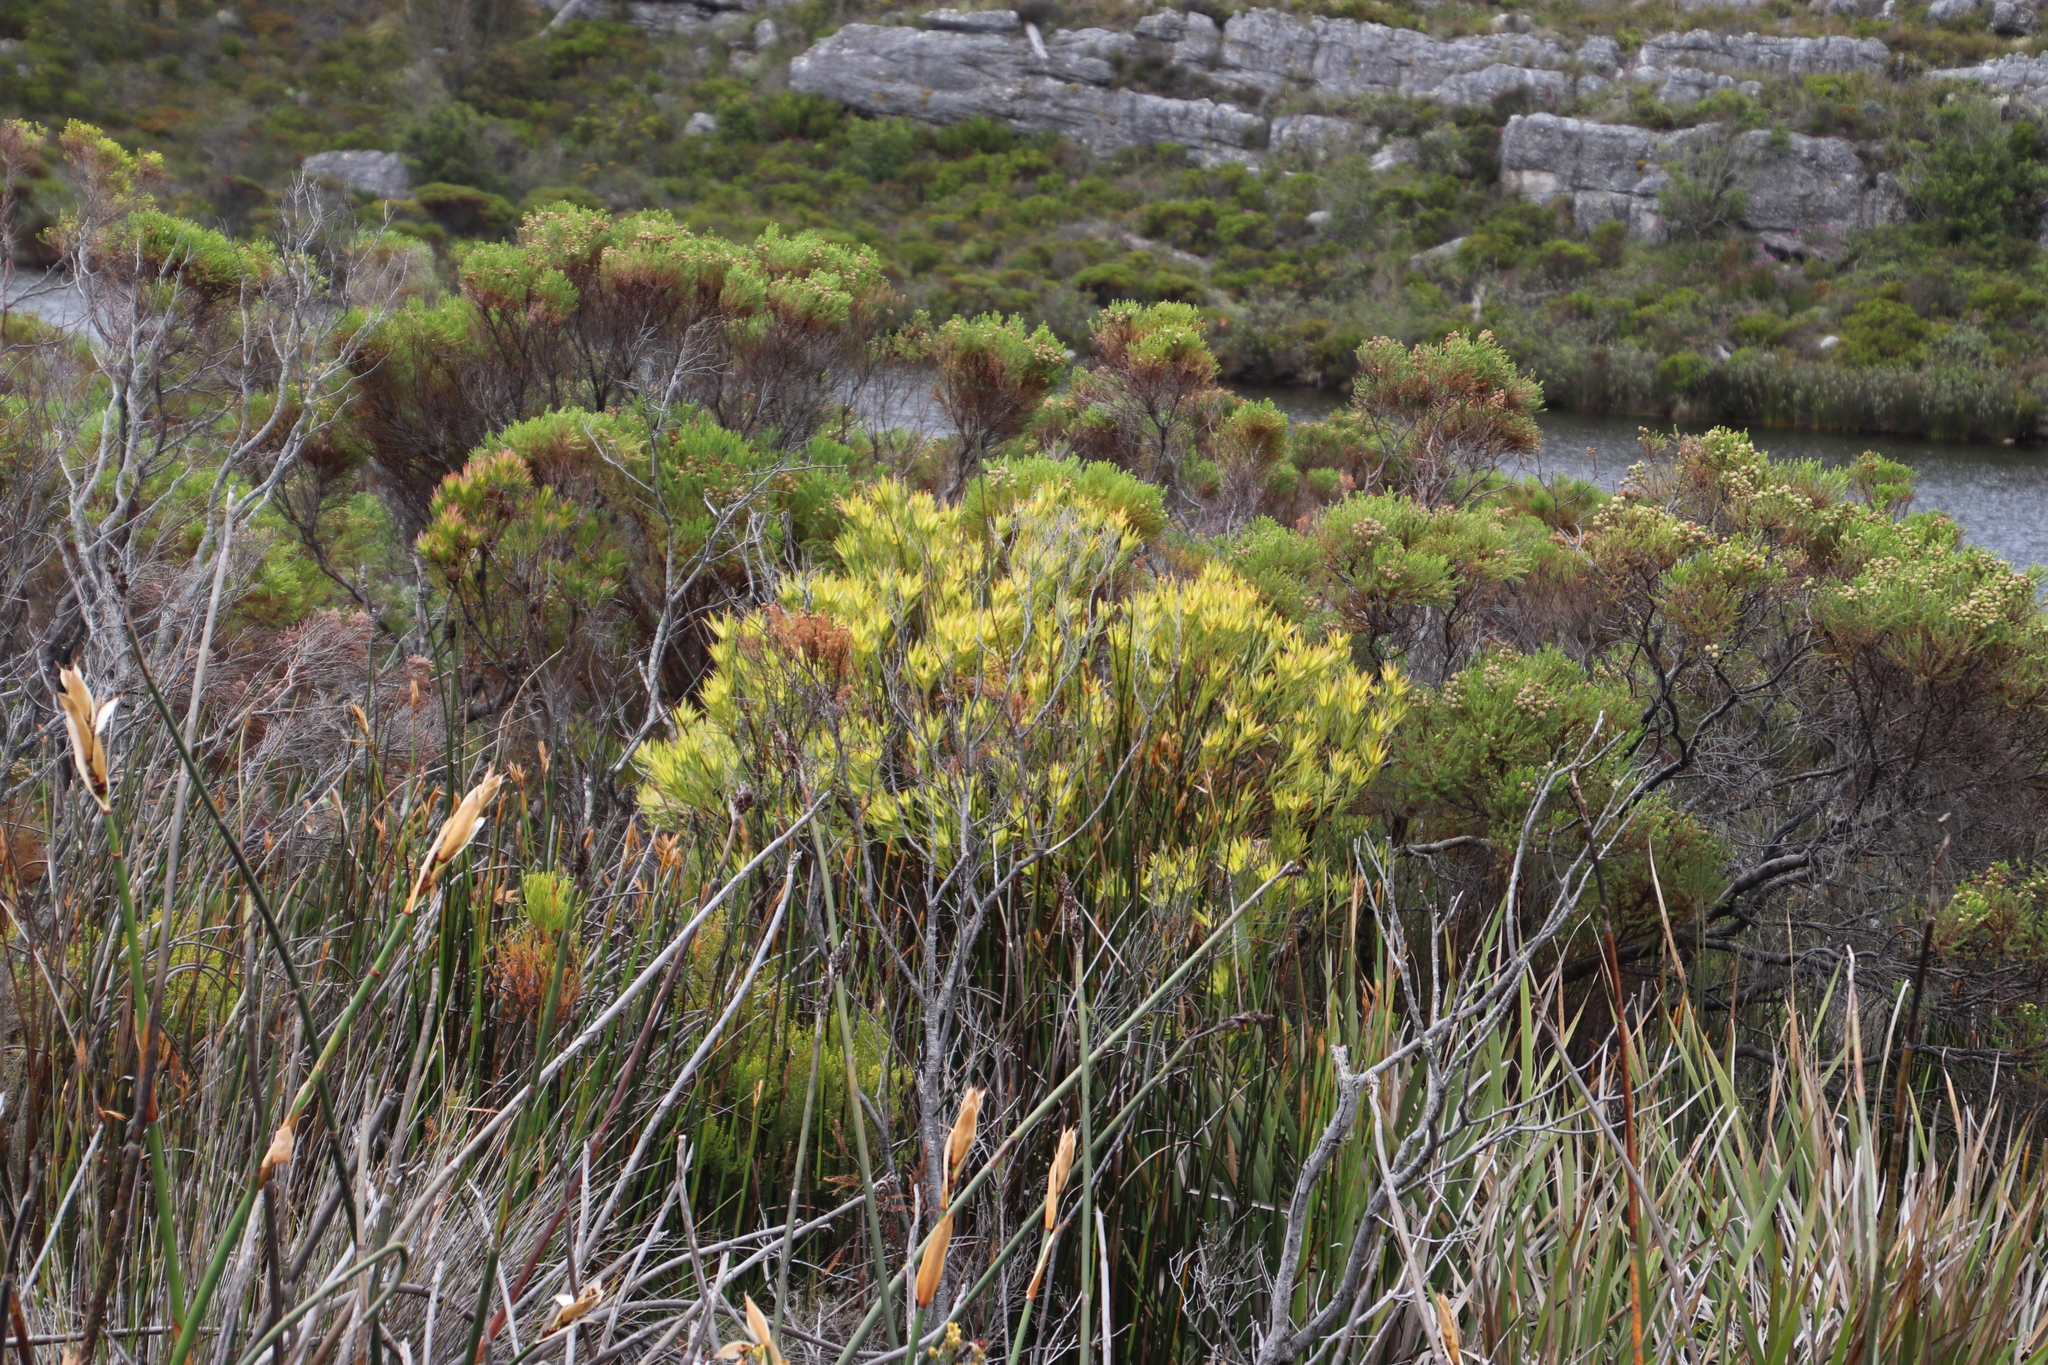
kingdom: Plantae
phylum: Tracheophyta
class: Magnoliopsida
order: Proteales
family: Proteaceae
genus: Leucadendron
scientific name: Leucadendron xanthoconus
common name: Sickle-leaf conebush
